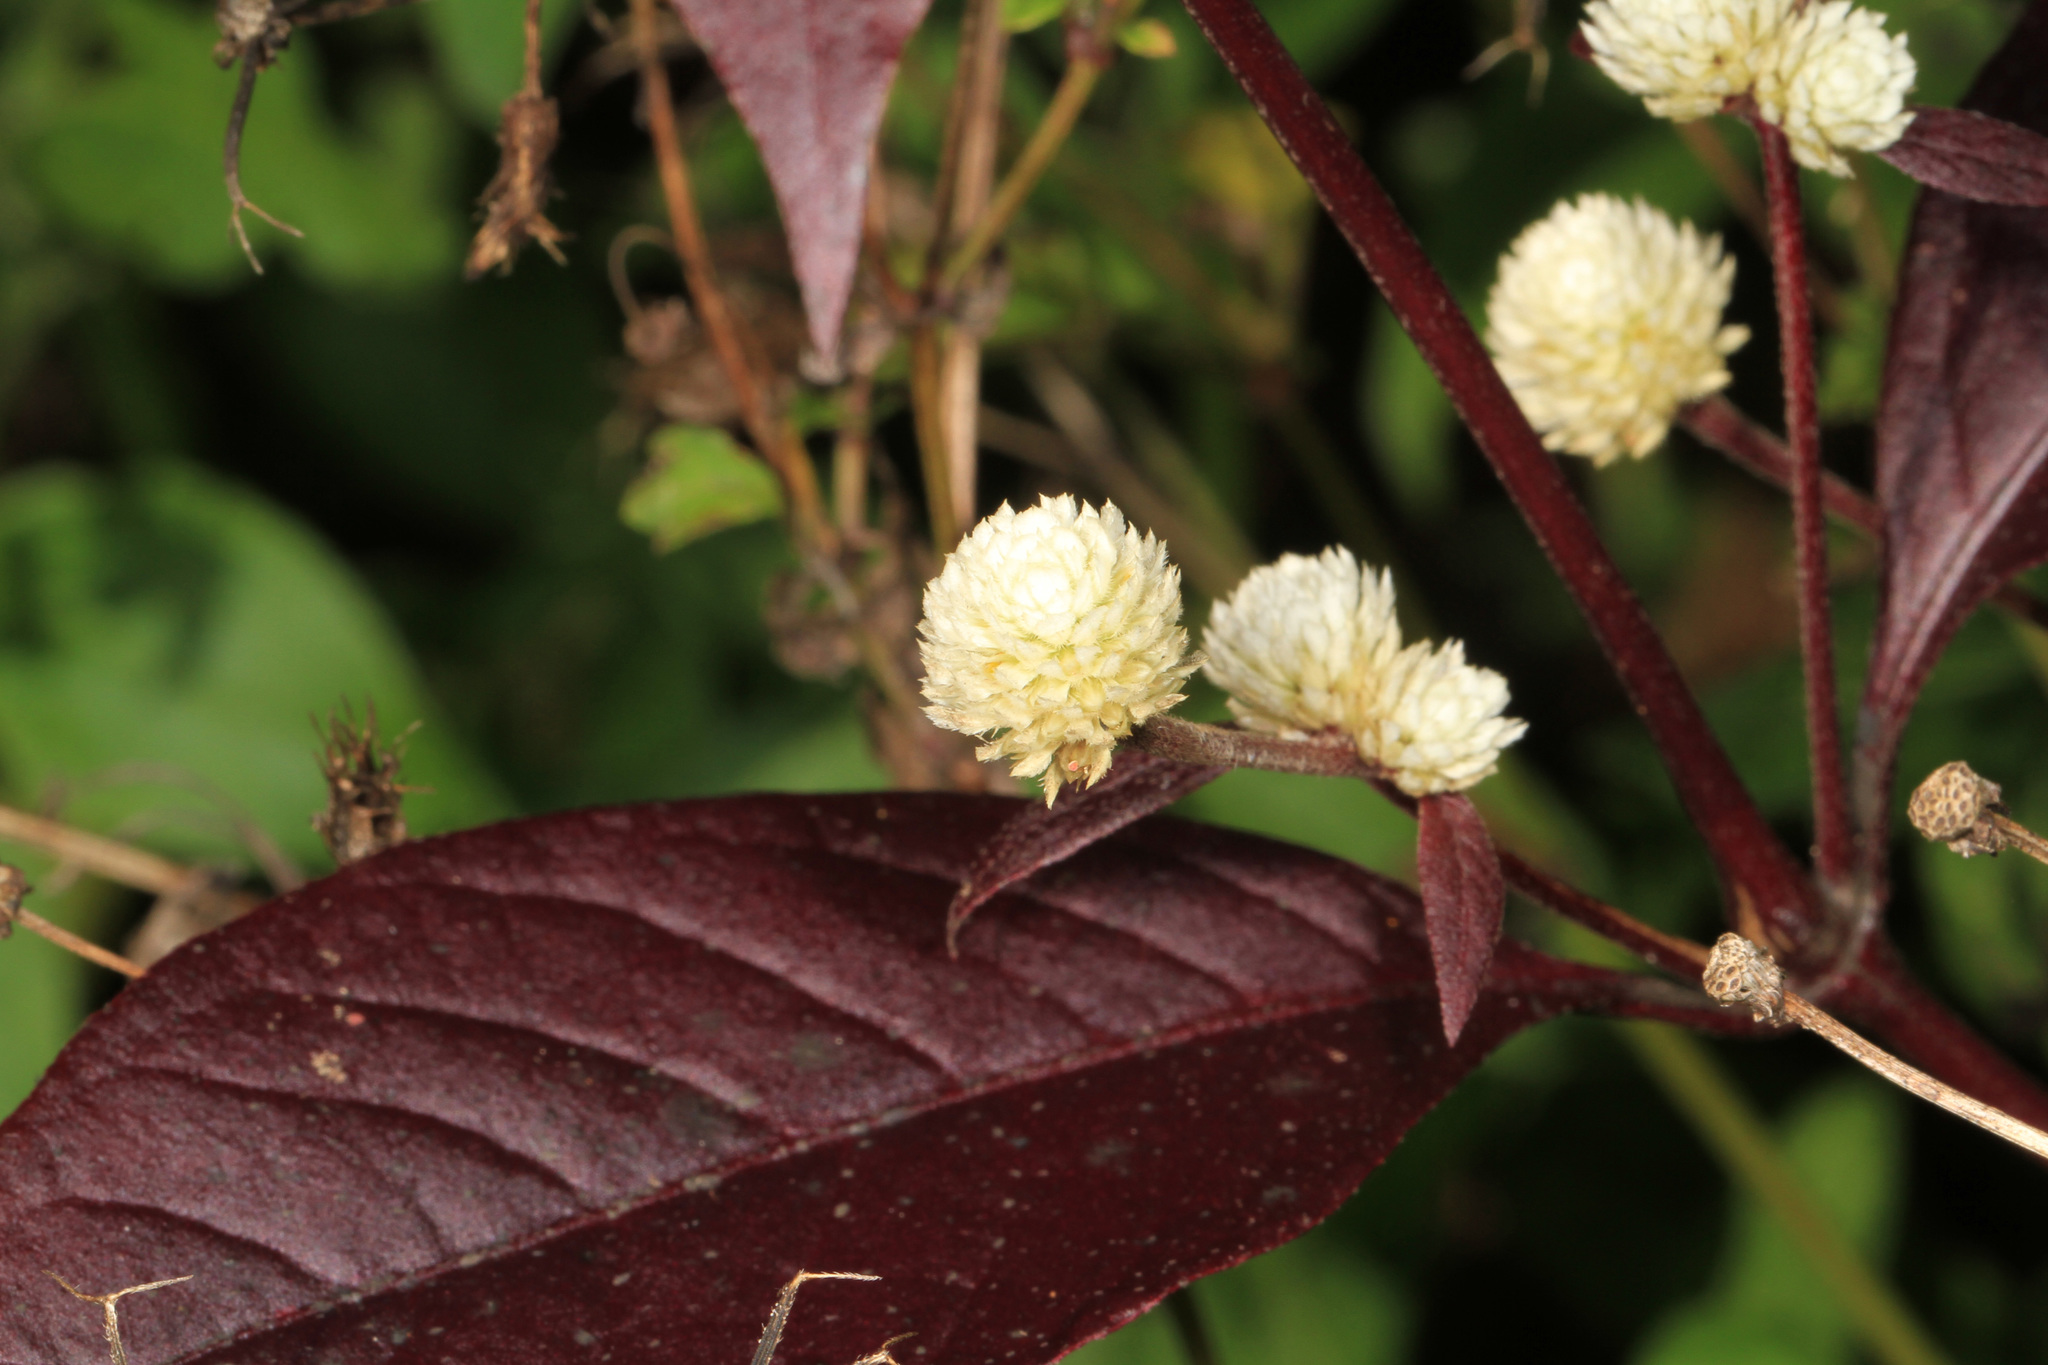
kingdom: Plantae
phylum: Tracheophyta
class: Magnoliopsida
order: Caryophyllales
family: Amaranthaceae
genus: Alternanthera
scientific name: Alternanthera brasiliana
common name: Brazilian joyweed
